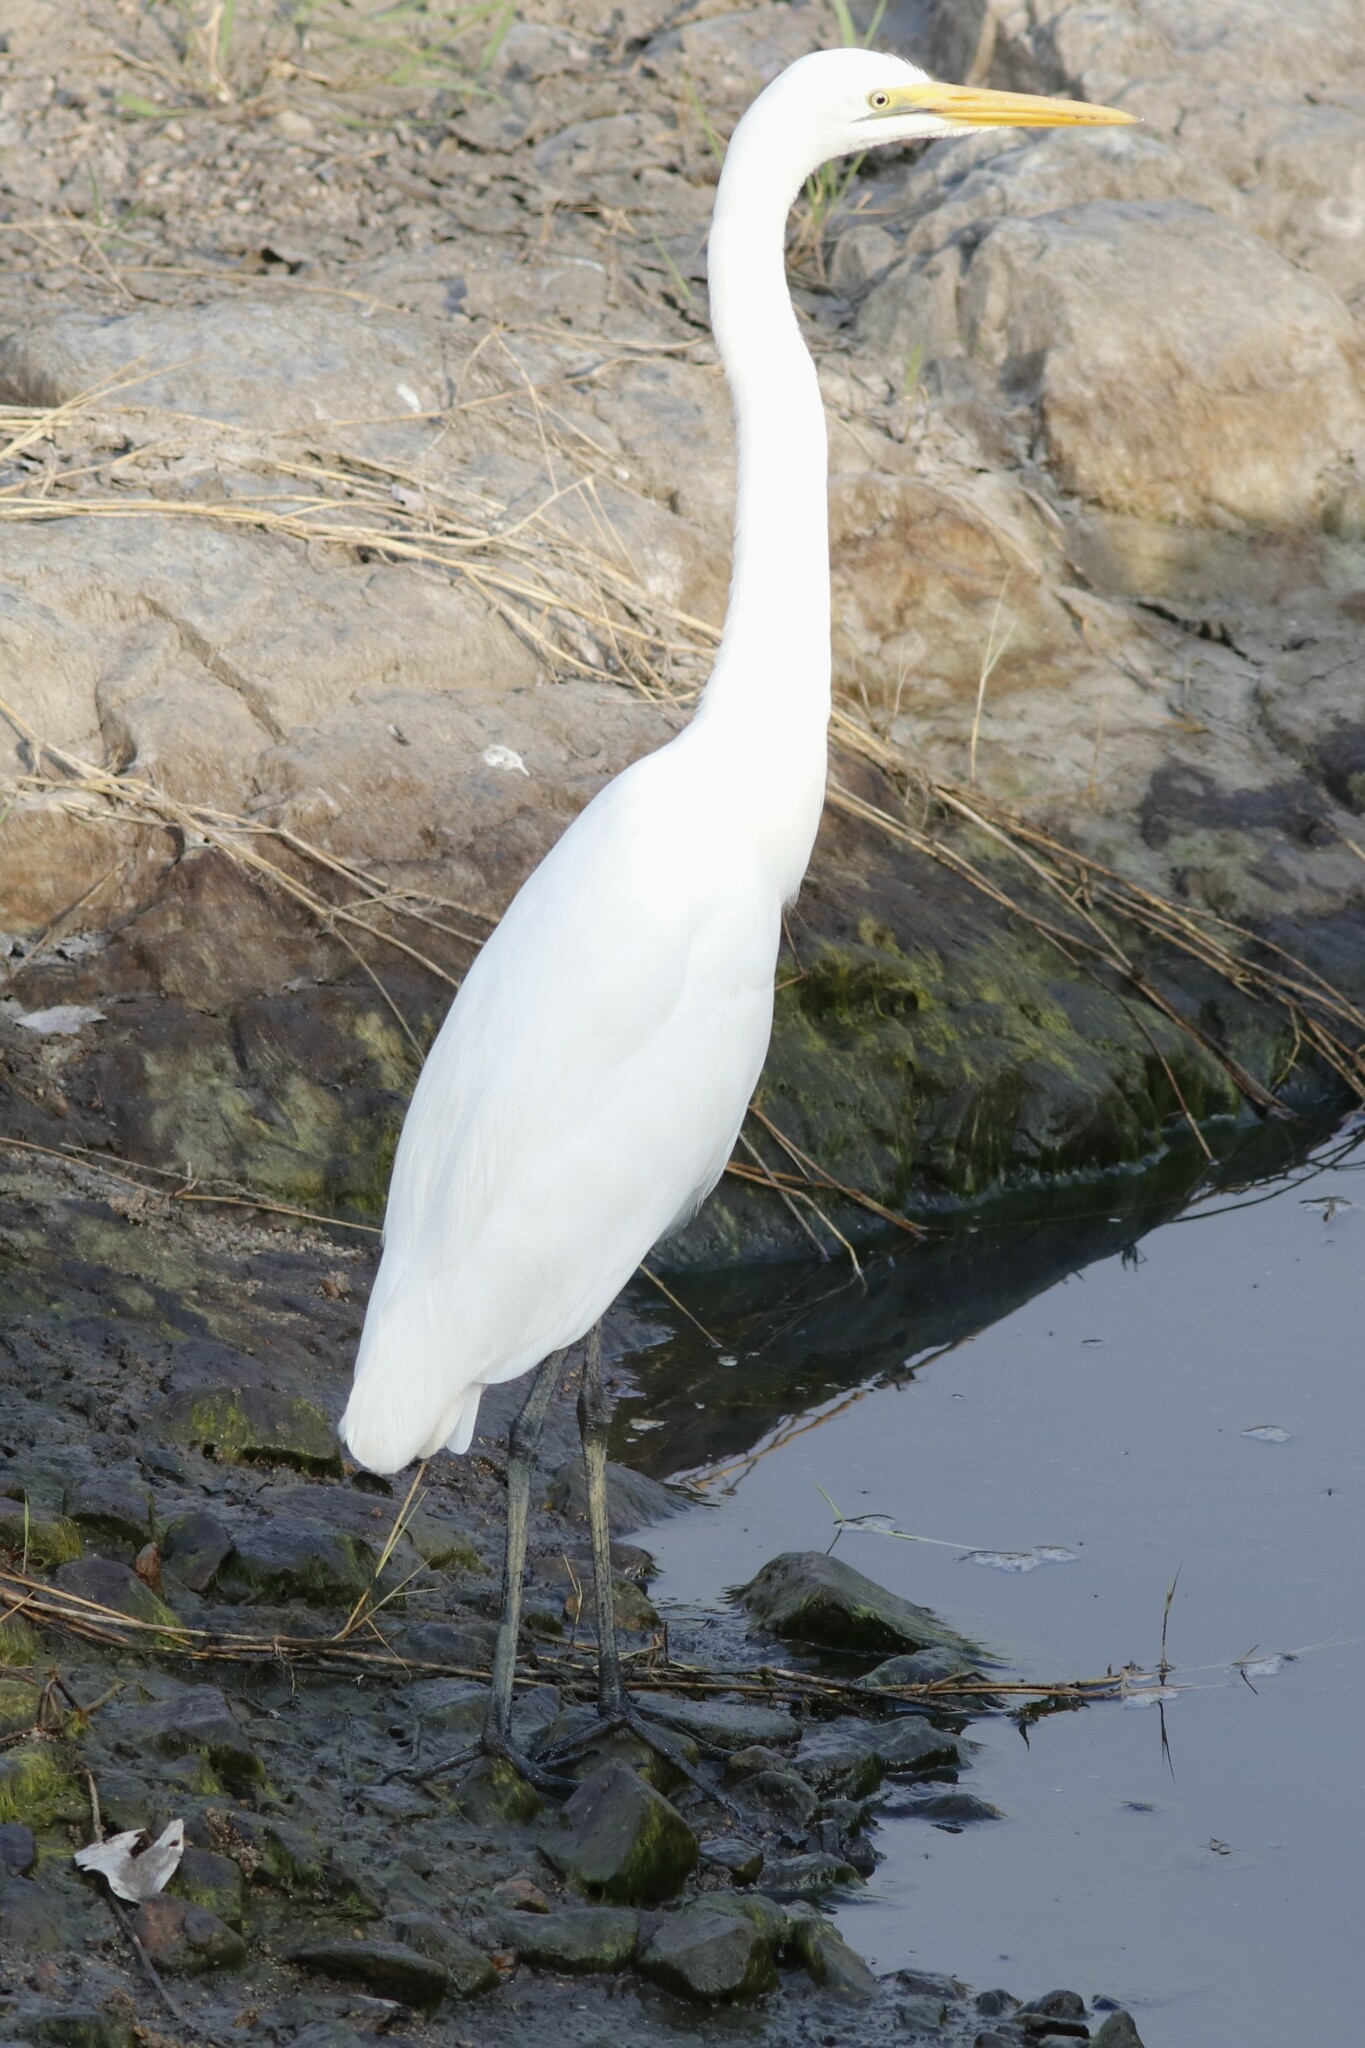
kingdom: Animalia
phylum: Chordata
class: Aves
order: Pelecaniformes
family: Ardeidae
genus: Ardea
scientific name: Ardea alba
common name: Great egret
